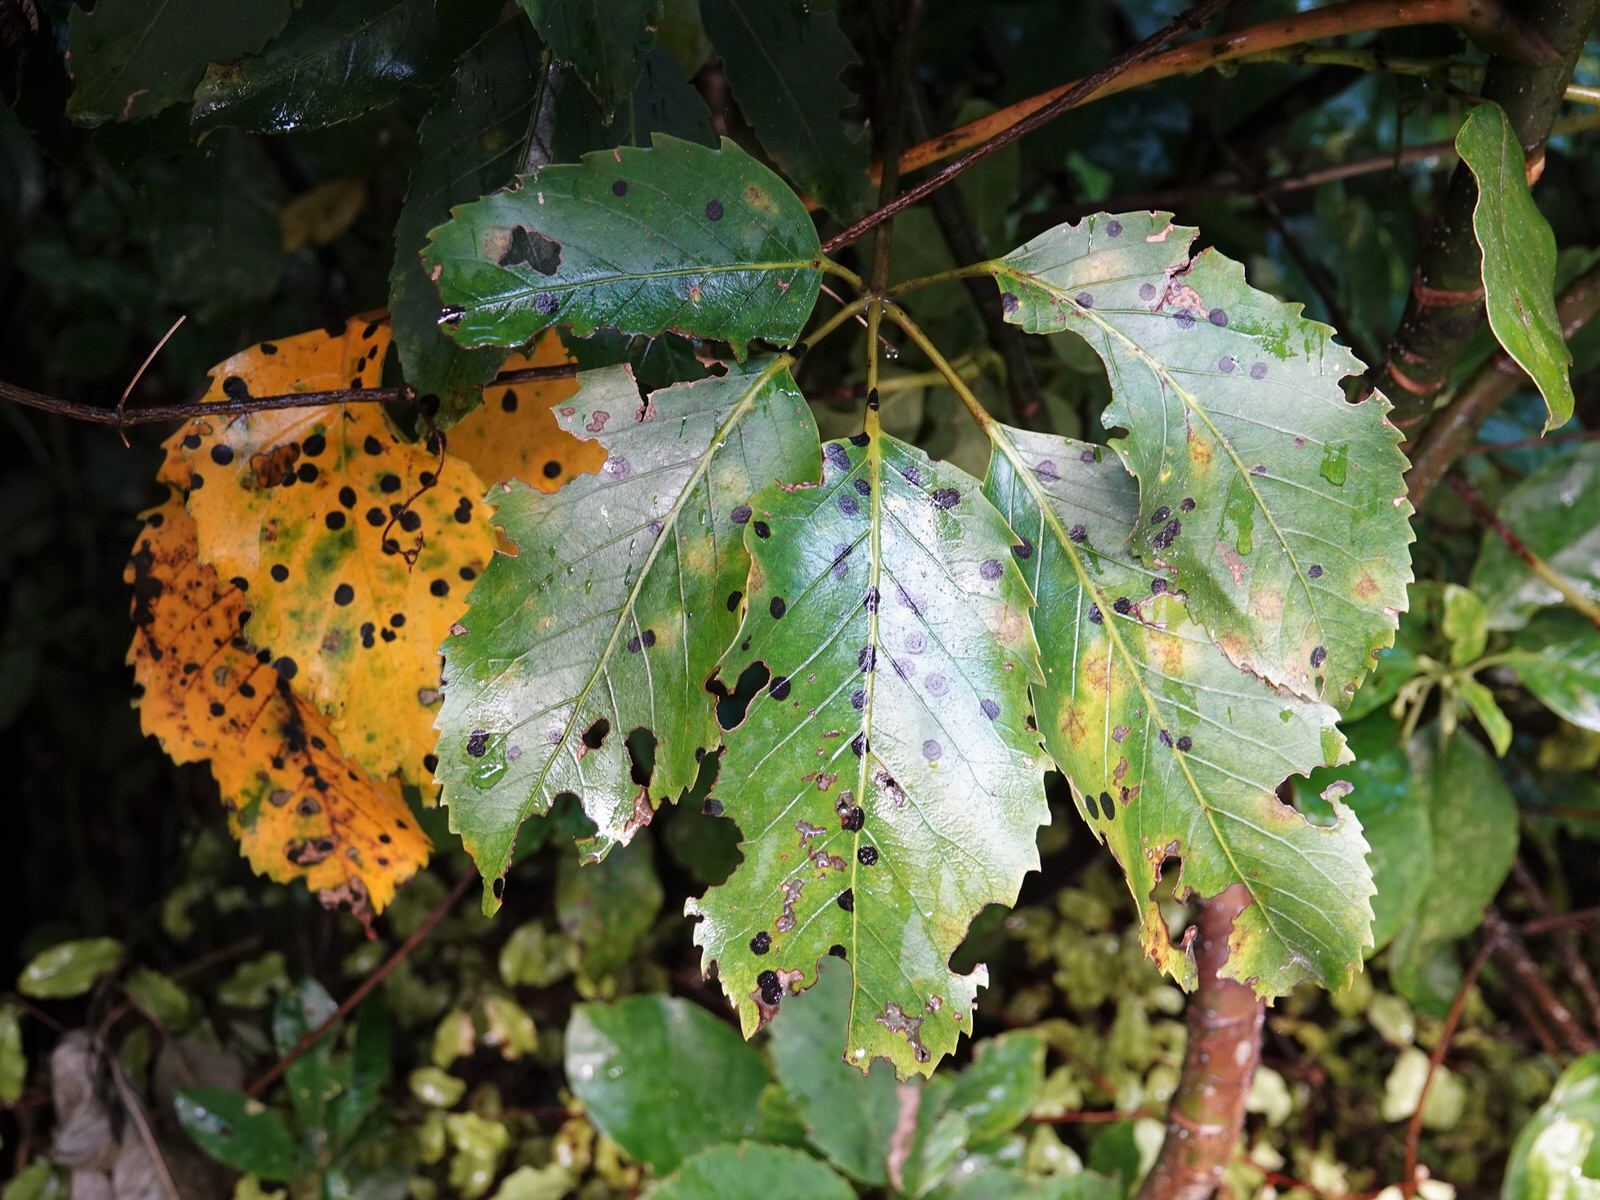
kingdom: Fungi
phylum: Ascomycota
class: Dothideomycetes
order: Asterinales
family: Asterinaceae
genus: Placosoma
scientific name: Placosoma nothopanacis
